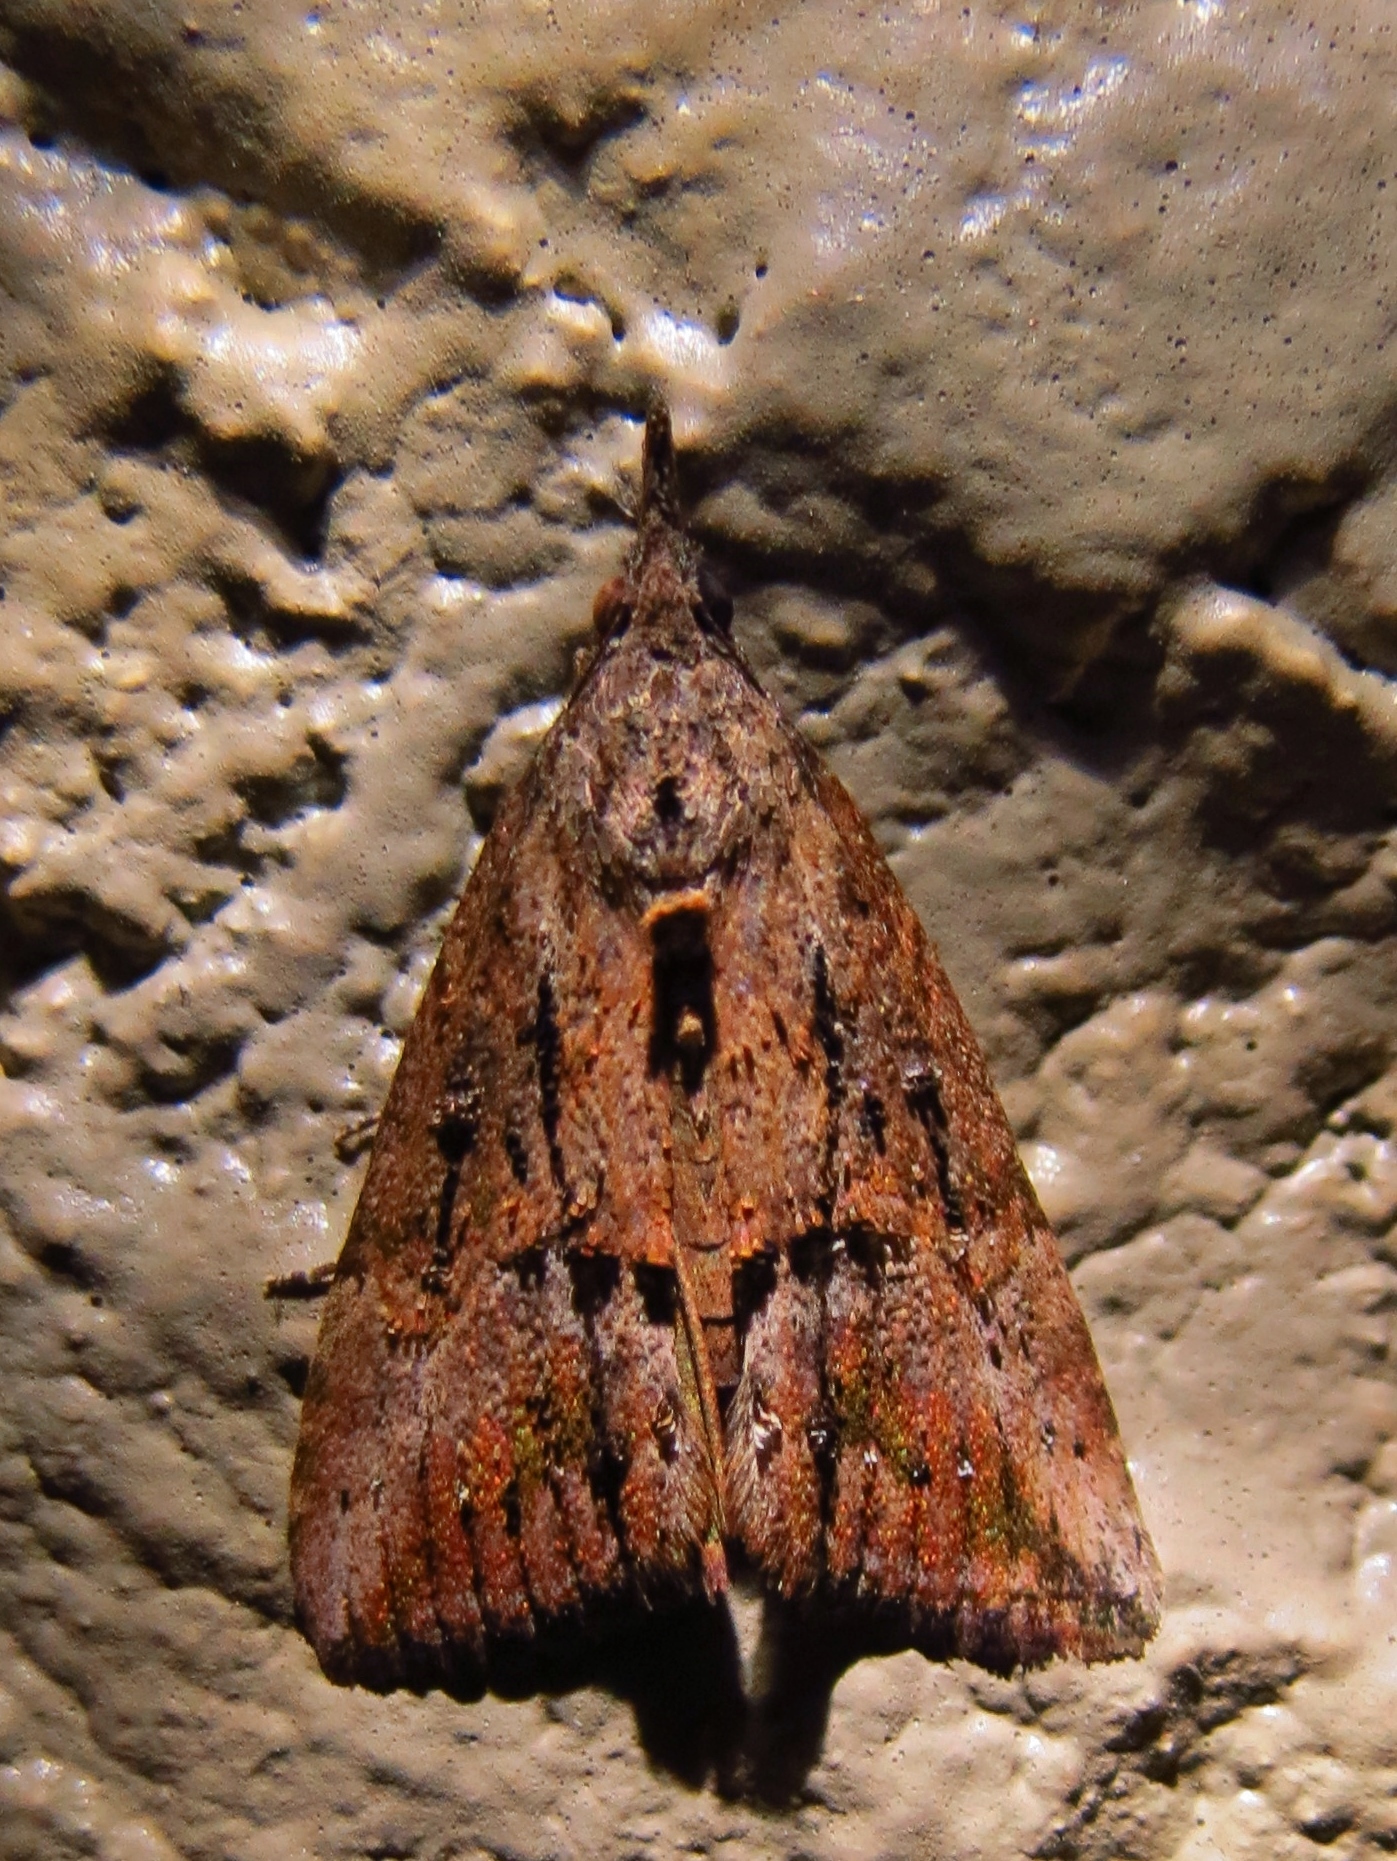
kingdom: Animalia
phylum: Arthropoda
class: Insecta
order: Lepidoptera
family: Erebidae
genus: Hypena
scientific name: Hypena scabra
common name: Green cloverworm
